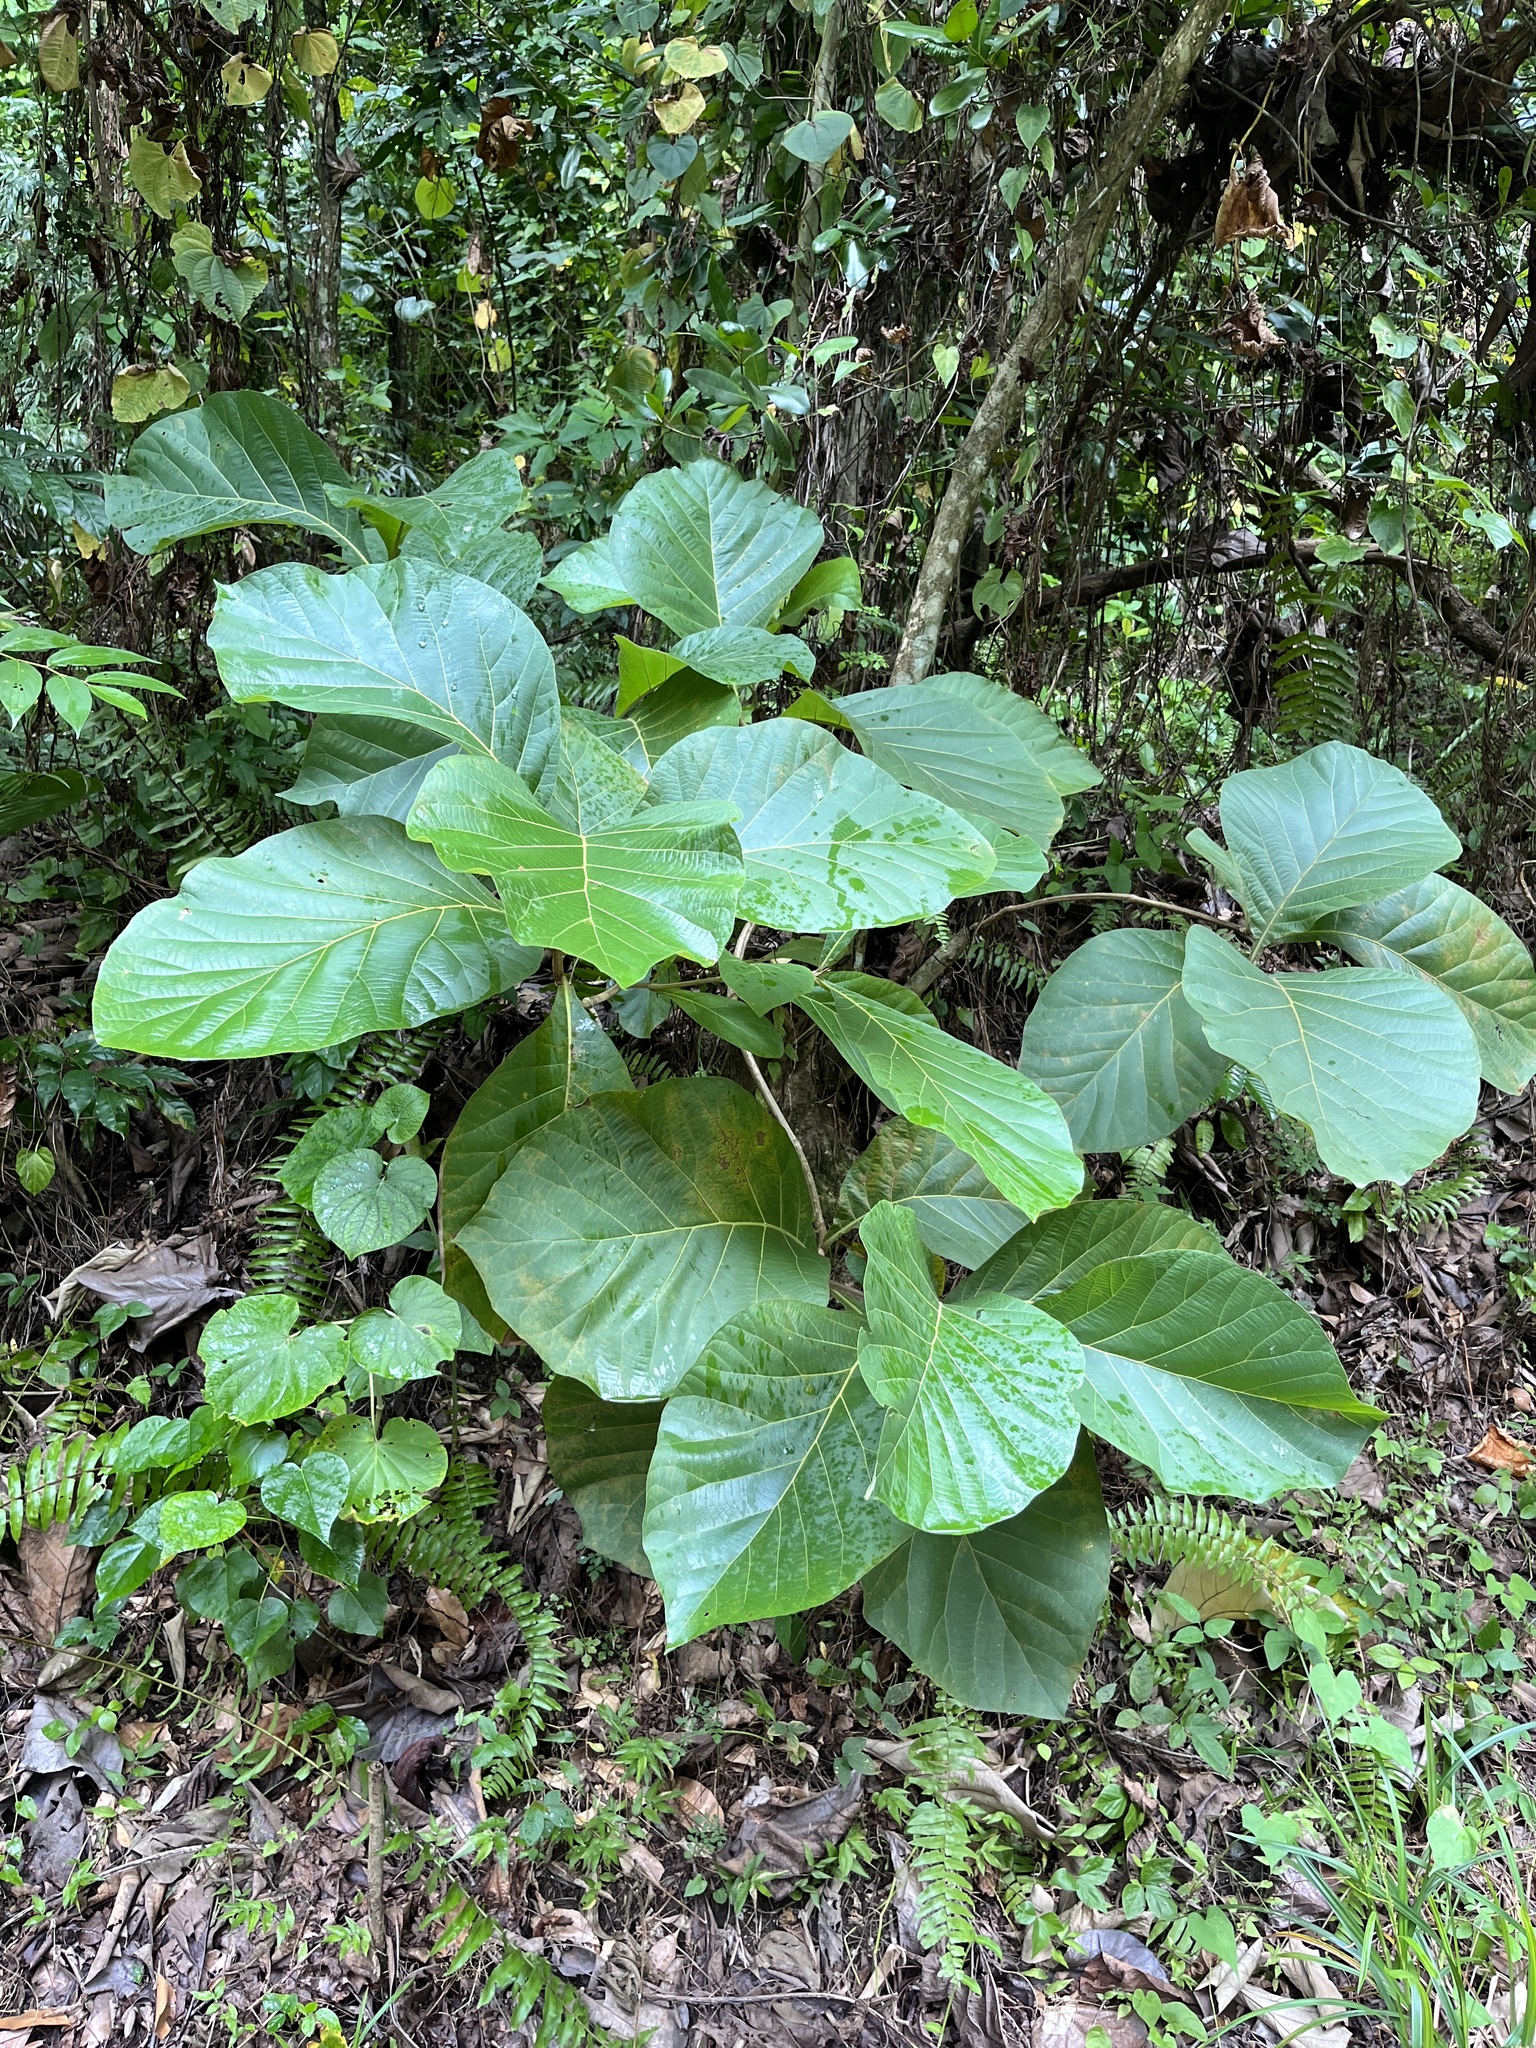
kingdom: Plantae
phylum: Tracheophyta
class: Magnoliopsida
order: Lamiales
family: Lamiaceae
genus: Tectona
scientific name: Tectona grandis
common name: Teak
